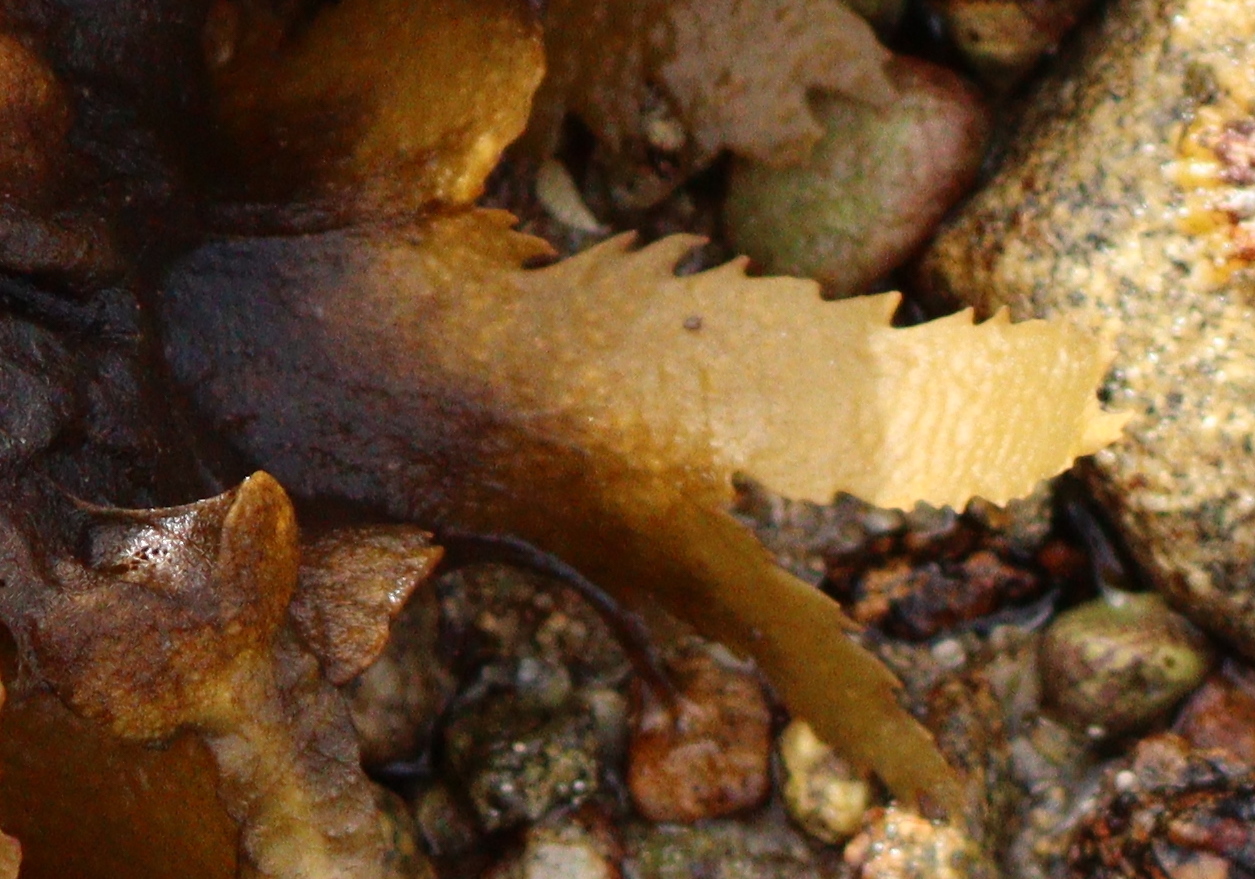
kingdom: Chromista
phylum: Ochrophyta
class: Phaeophyceae
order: Fucales
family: Fucaceae
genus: Fucus
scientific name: Fucus serratus
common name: Toothed wrack
